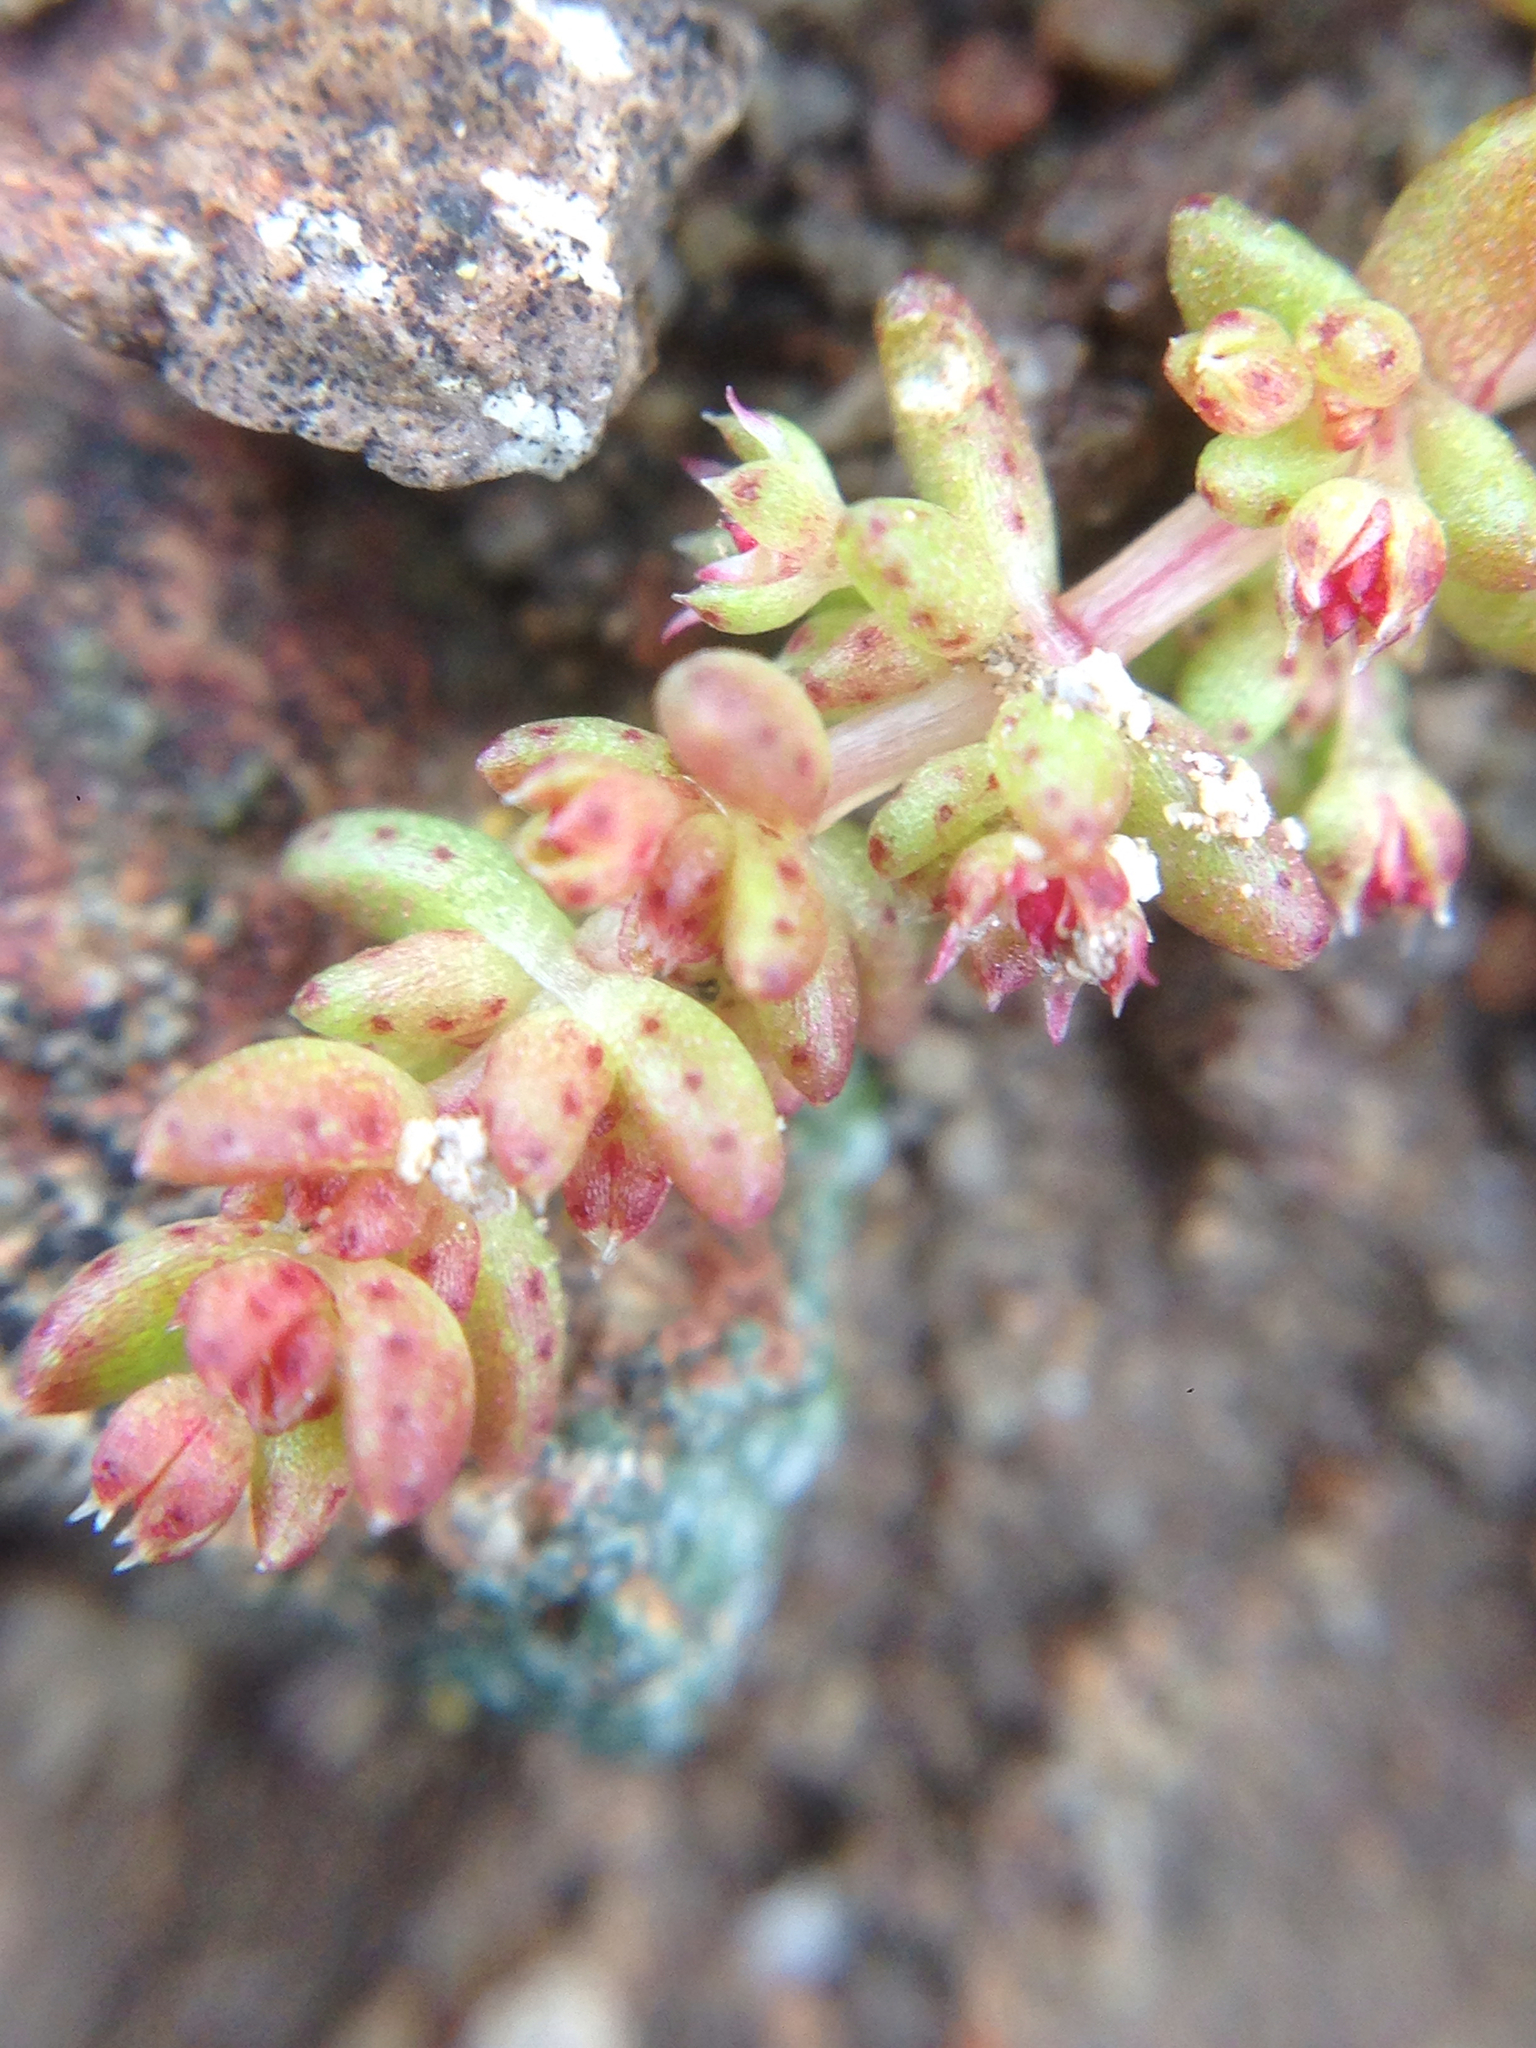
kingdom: Plantae
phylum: Tracheophyta
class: Magnoliopsida
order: Saxifragales
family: Crassulaceae
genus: Crassula
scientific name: Crassula connata
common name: Erect pygmyweed
